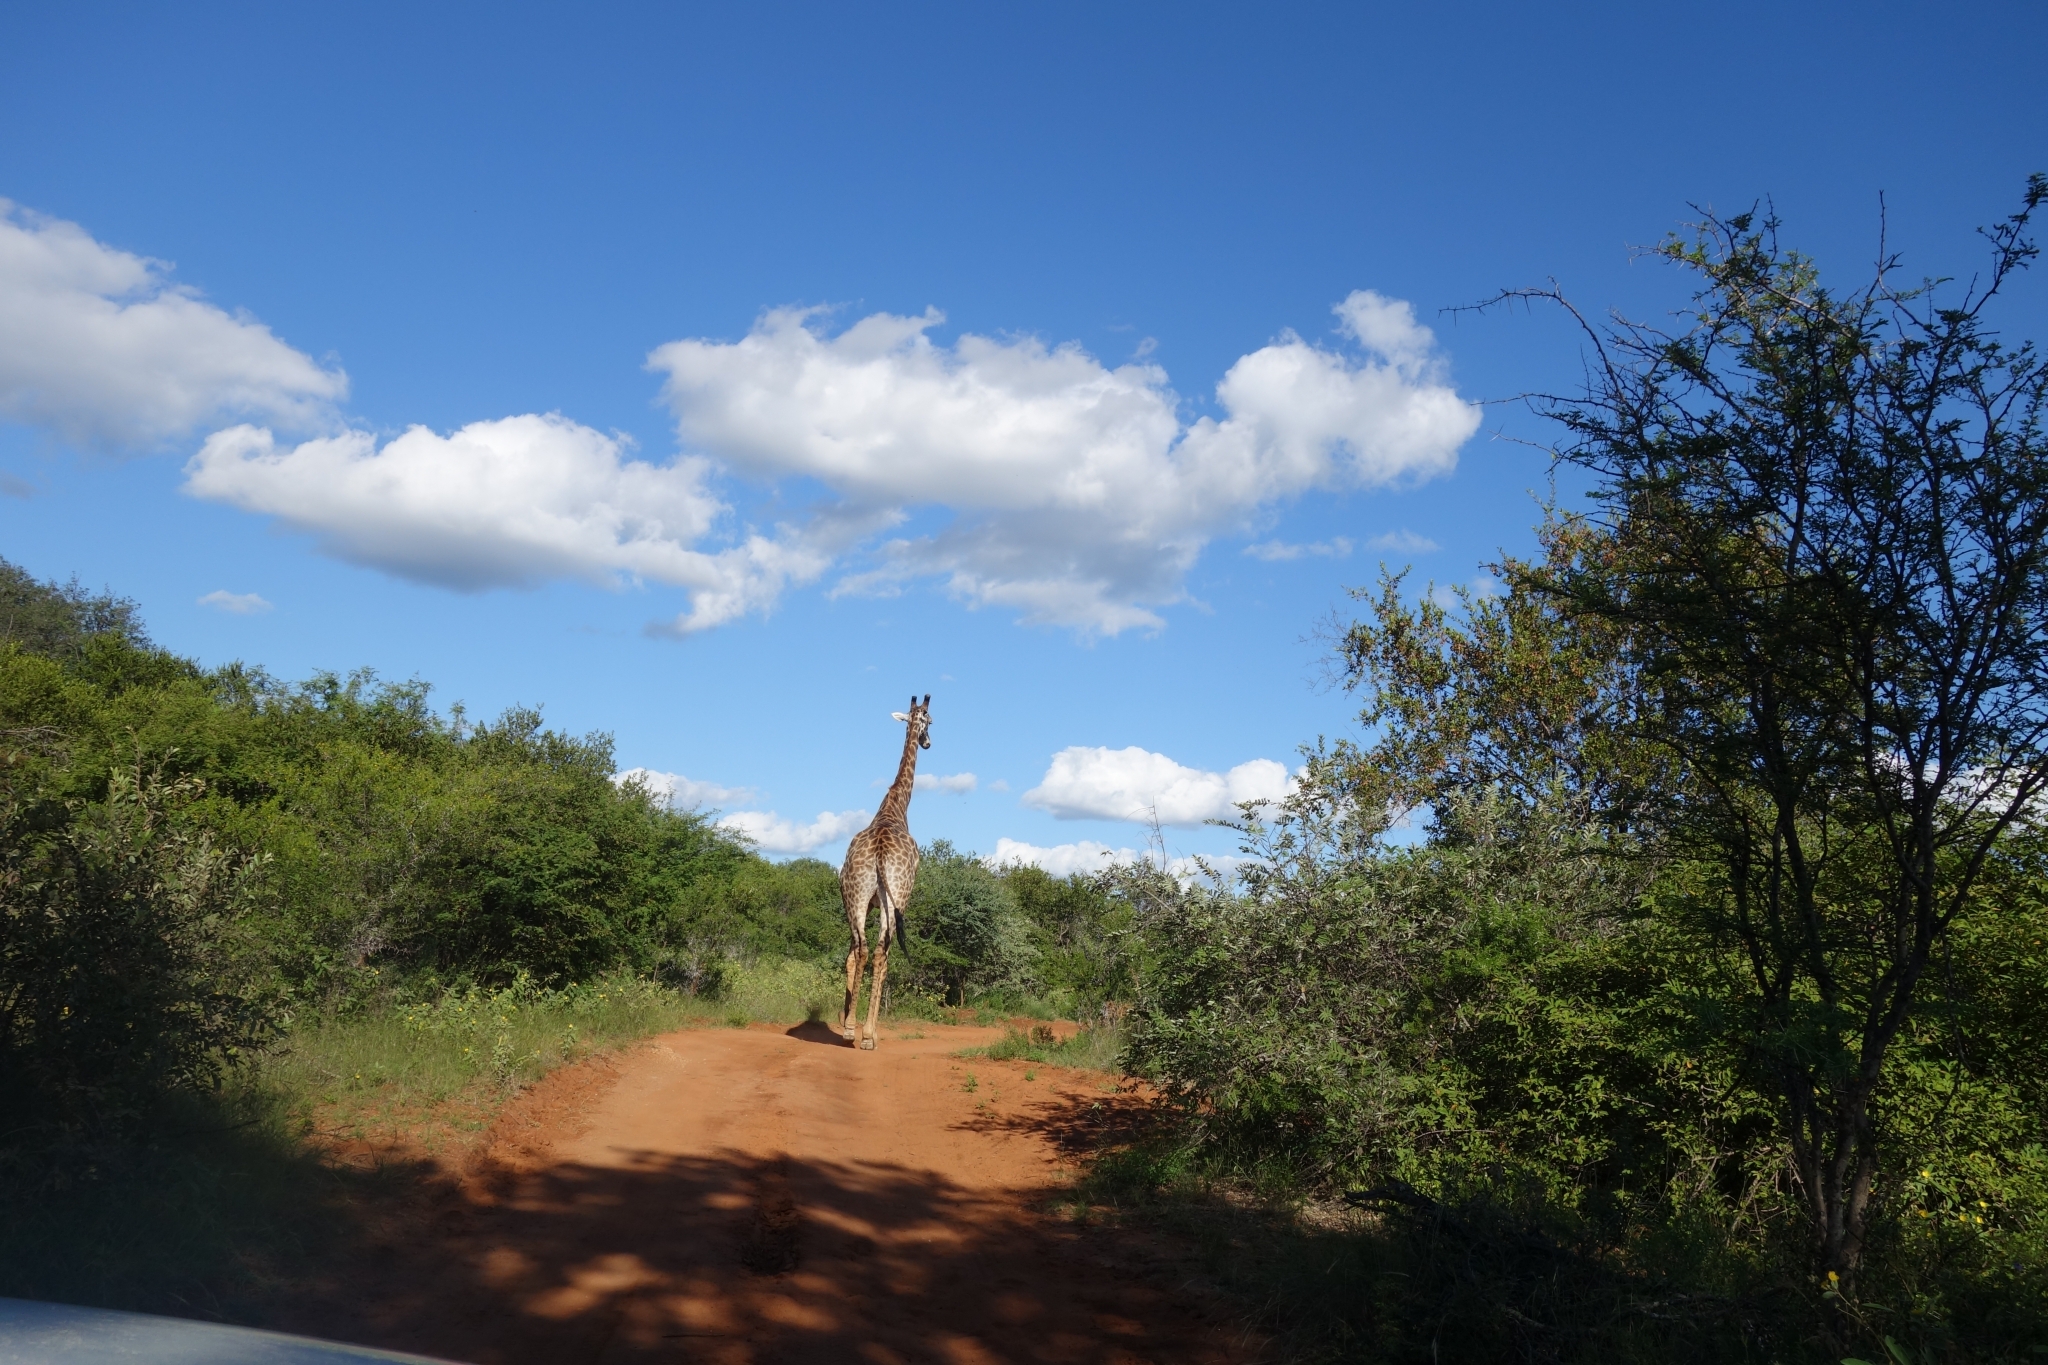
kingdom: Animalia
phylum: Chordata
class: Mammalia
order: Artiodactyla
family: Giraffidae
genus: Giraffa
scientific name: Giraffa giraffa
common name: Southern giraffe
